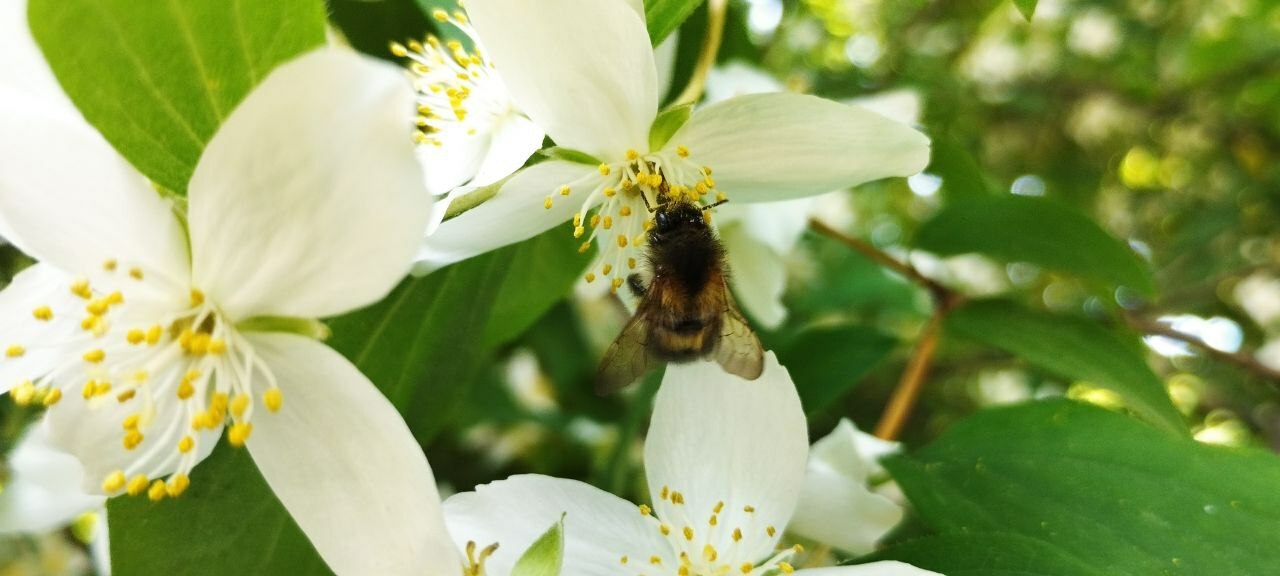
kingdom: Animalia
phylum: Arthropoda
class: Insecta
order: Hymenoptera
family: Apidae
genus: Bombus
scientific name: Bombus pascuorum
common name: Common carder bee
